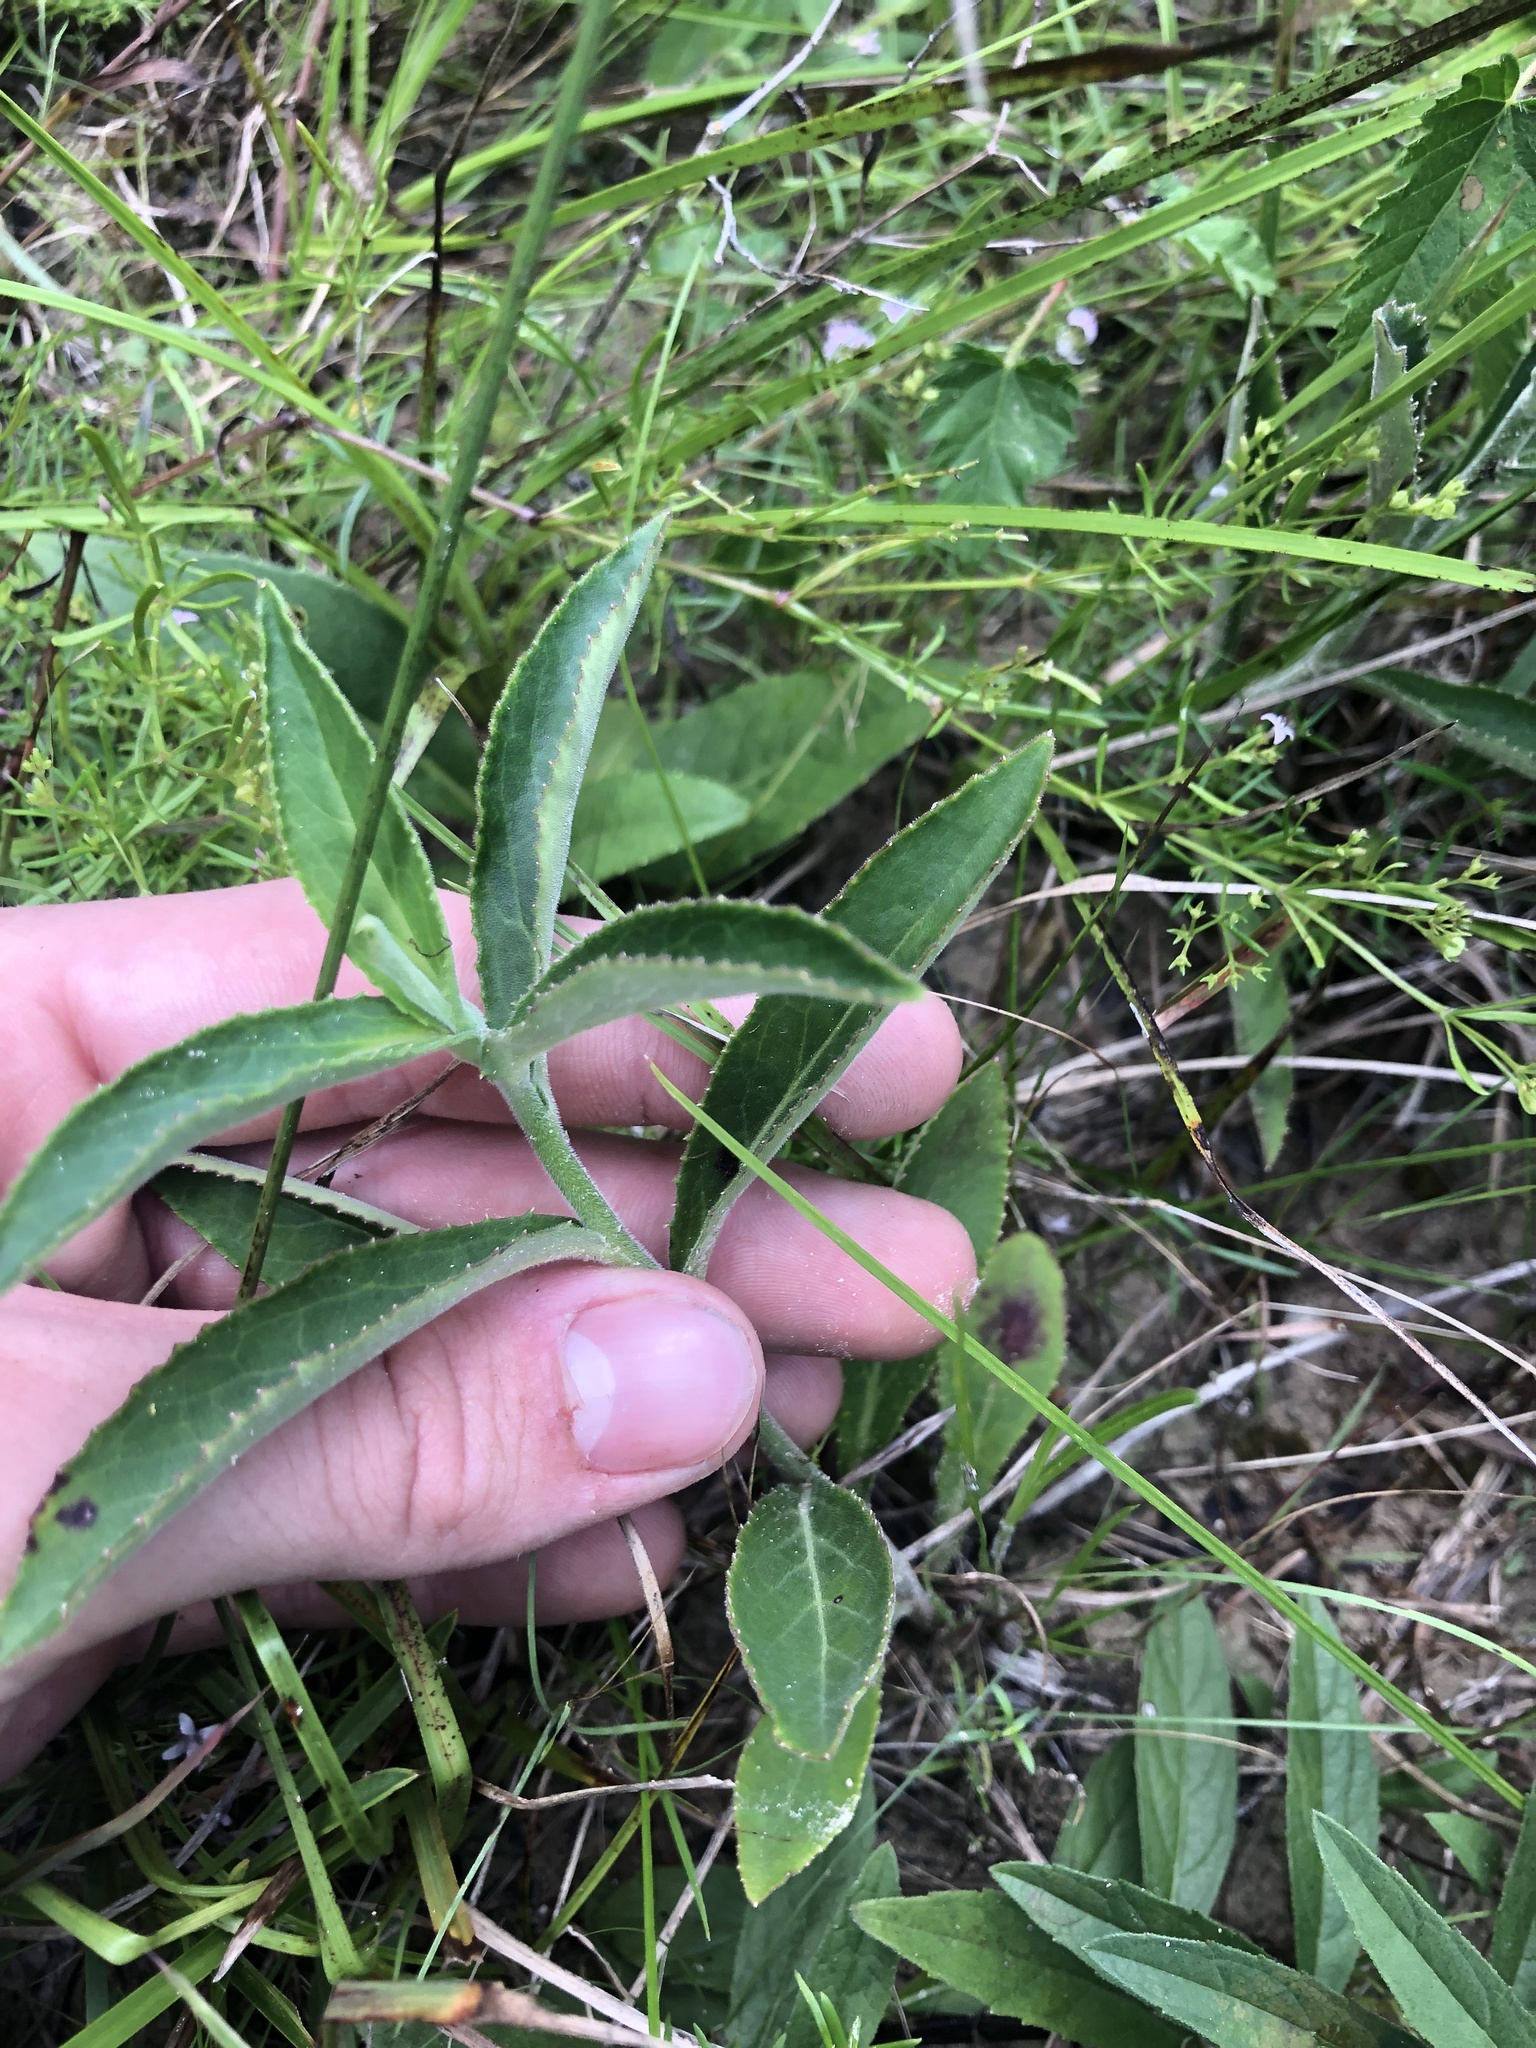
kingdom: Plantae
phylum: Tracheophyta
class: Magnoliopsida
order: Asterales
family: Campanulaceae
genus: Lobelia
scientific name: Lobelia puberula
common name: Purple dewdrop
